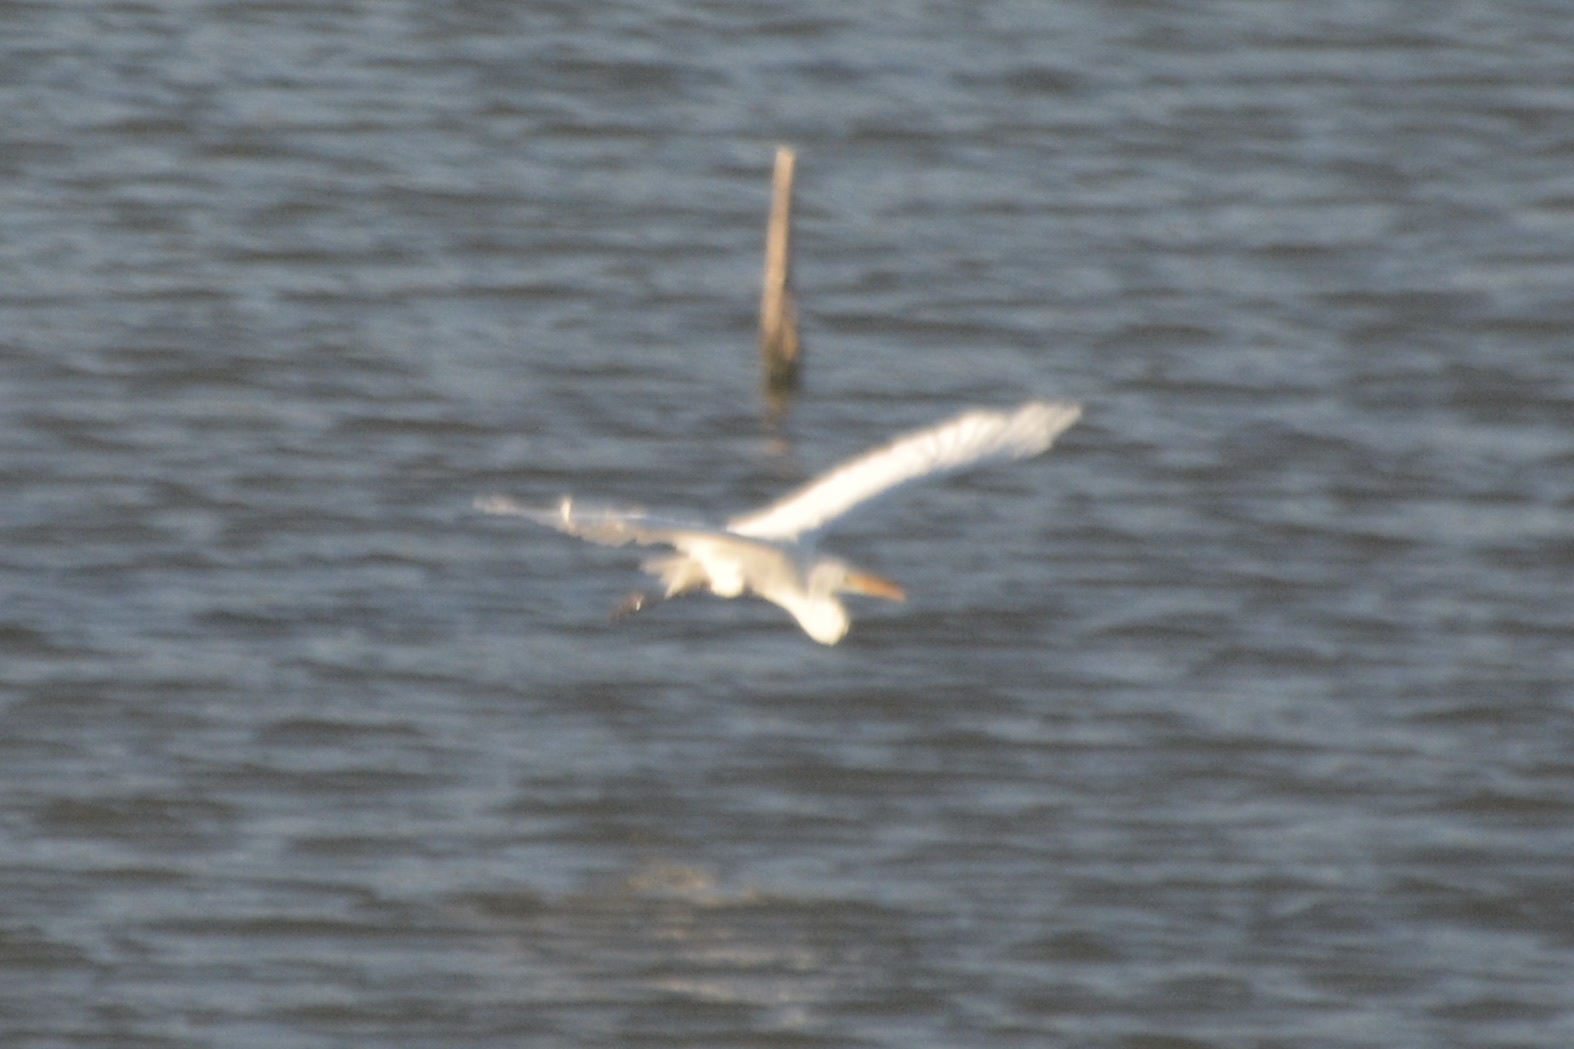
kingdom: Animalia
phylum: Chordata
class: Aves
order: Pelecaniformes
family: Ardeidae
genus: Ardea
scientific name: Ardea alba
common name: Great egret
